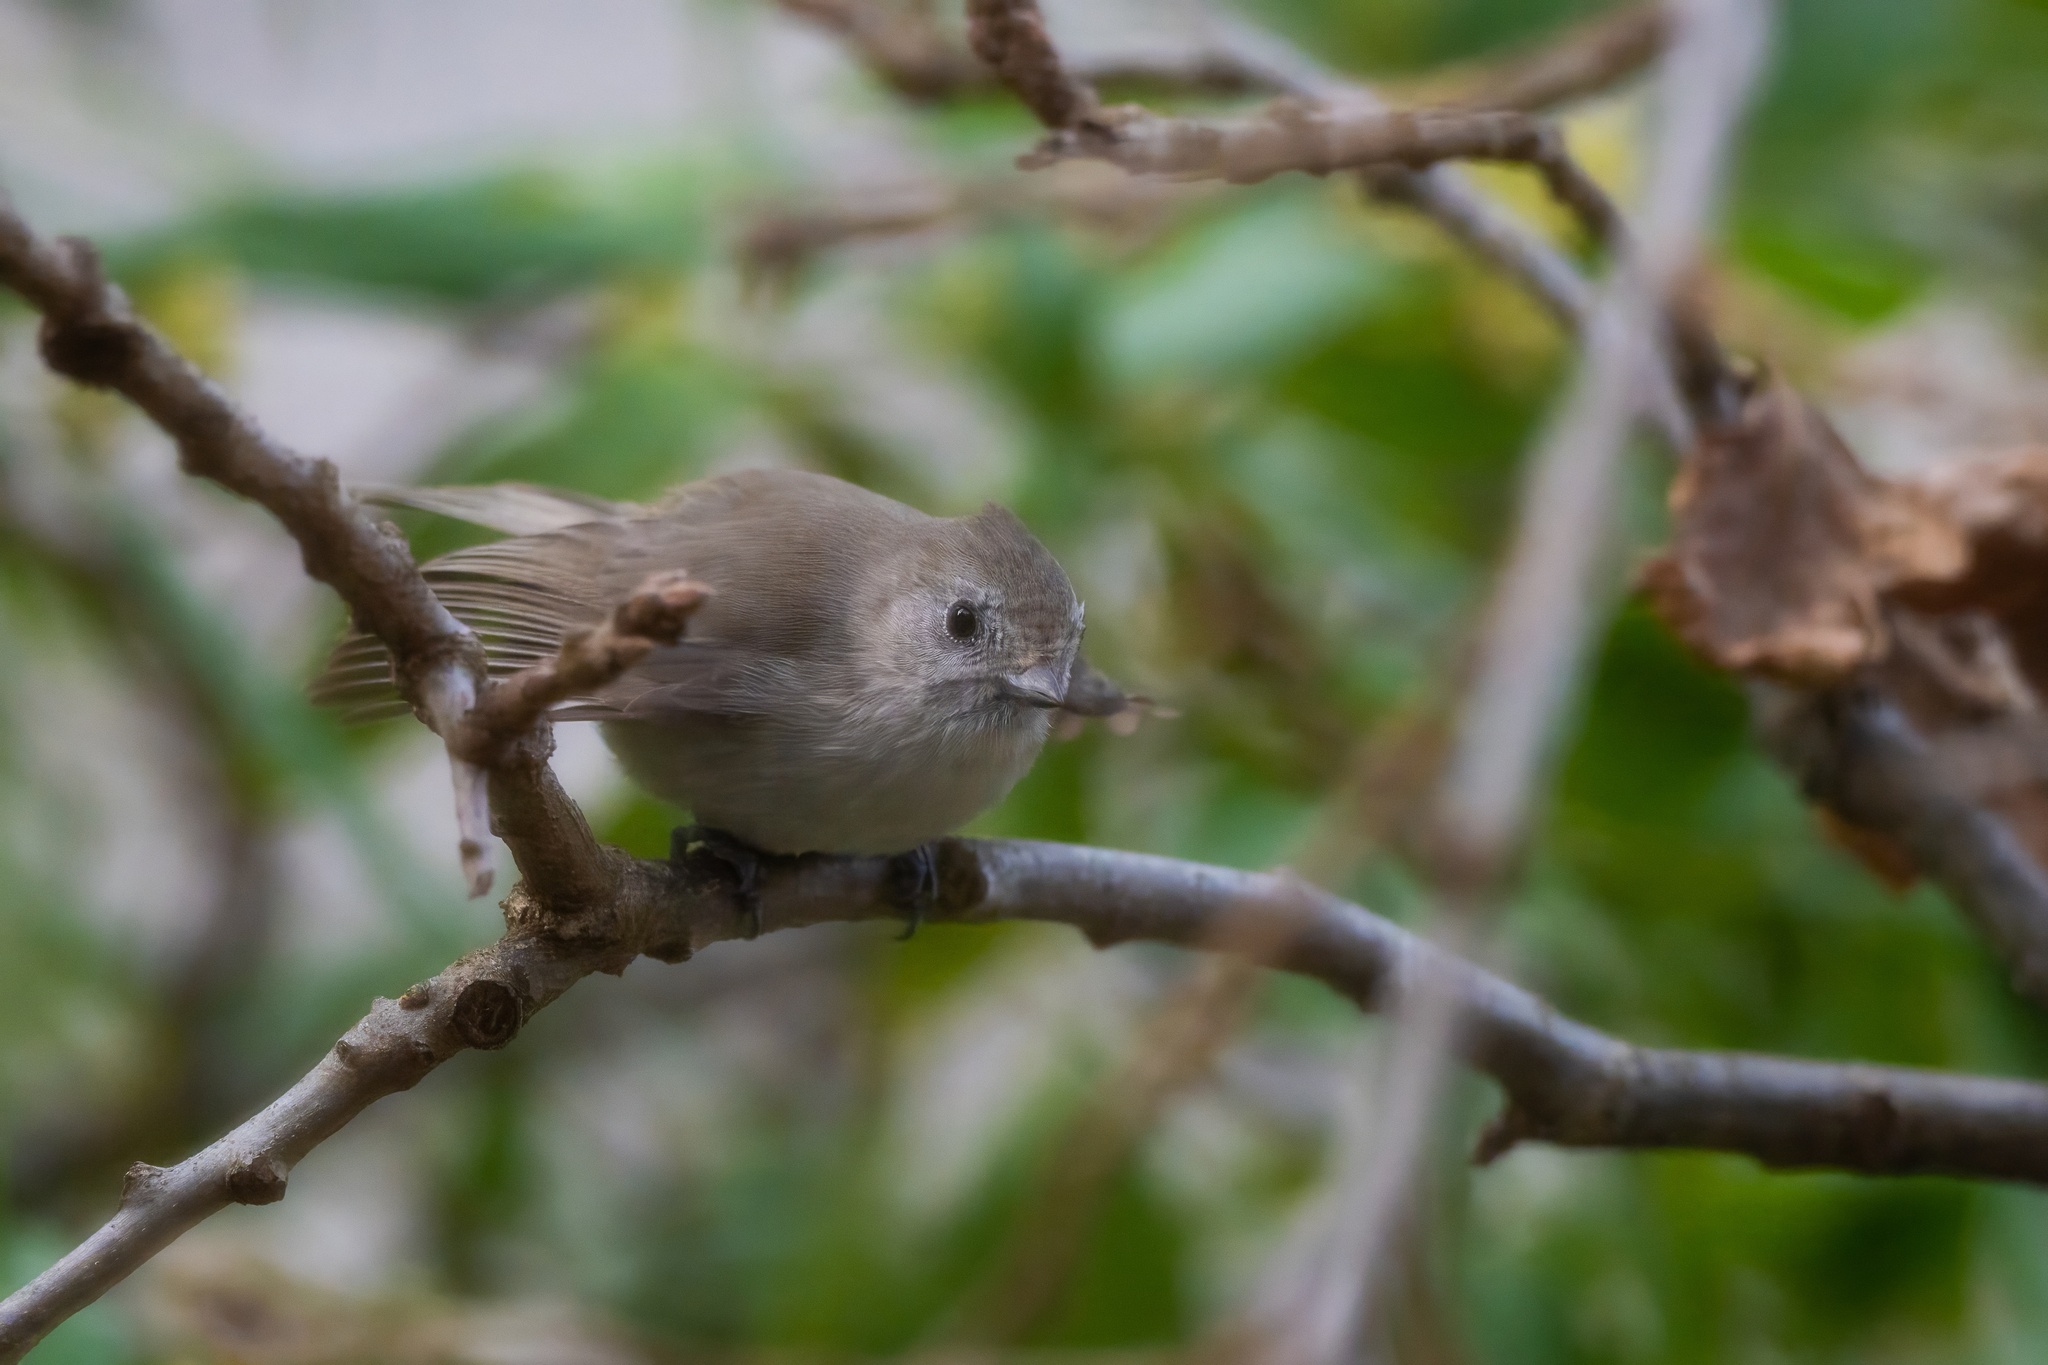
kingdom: Animalia
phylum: Chordata
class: Aves
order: Passeriformes
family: Paridae
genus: Baeolophus
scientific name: Baeolophus inornatus
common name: Oak titmouse
